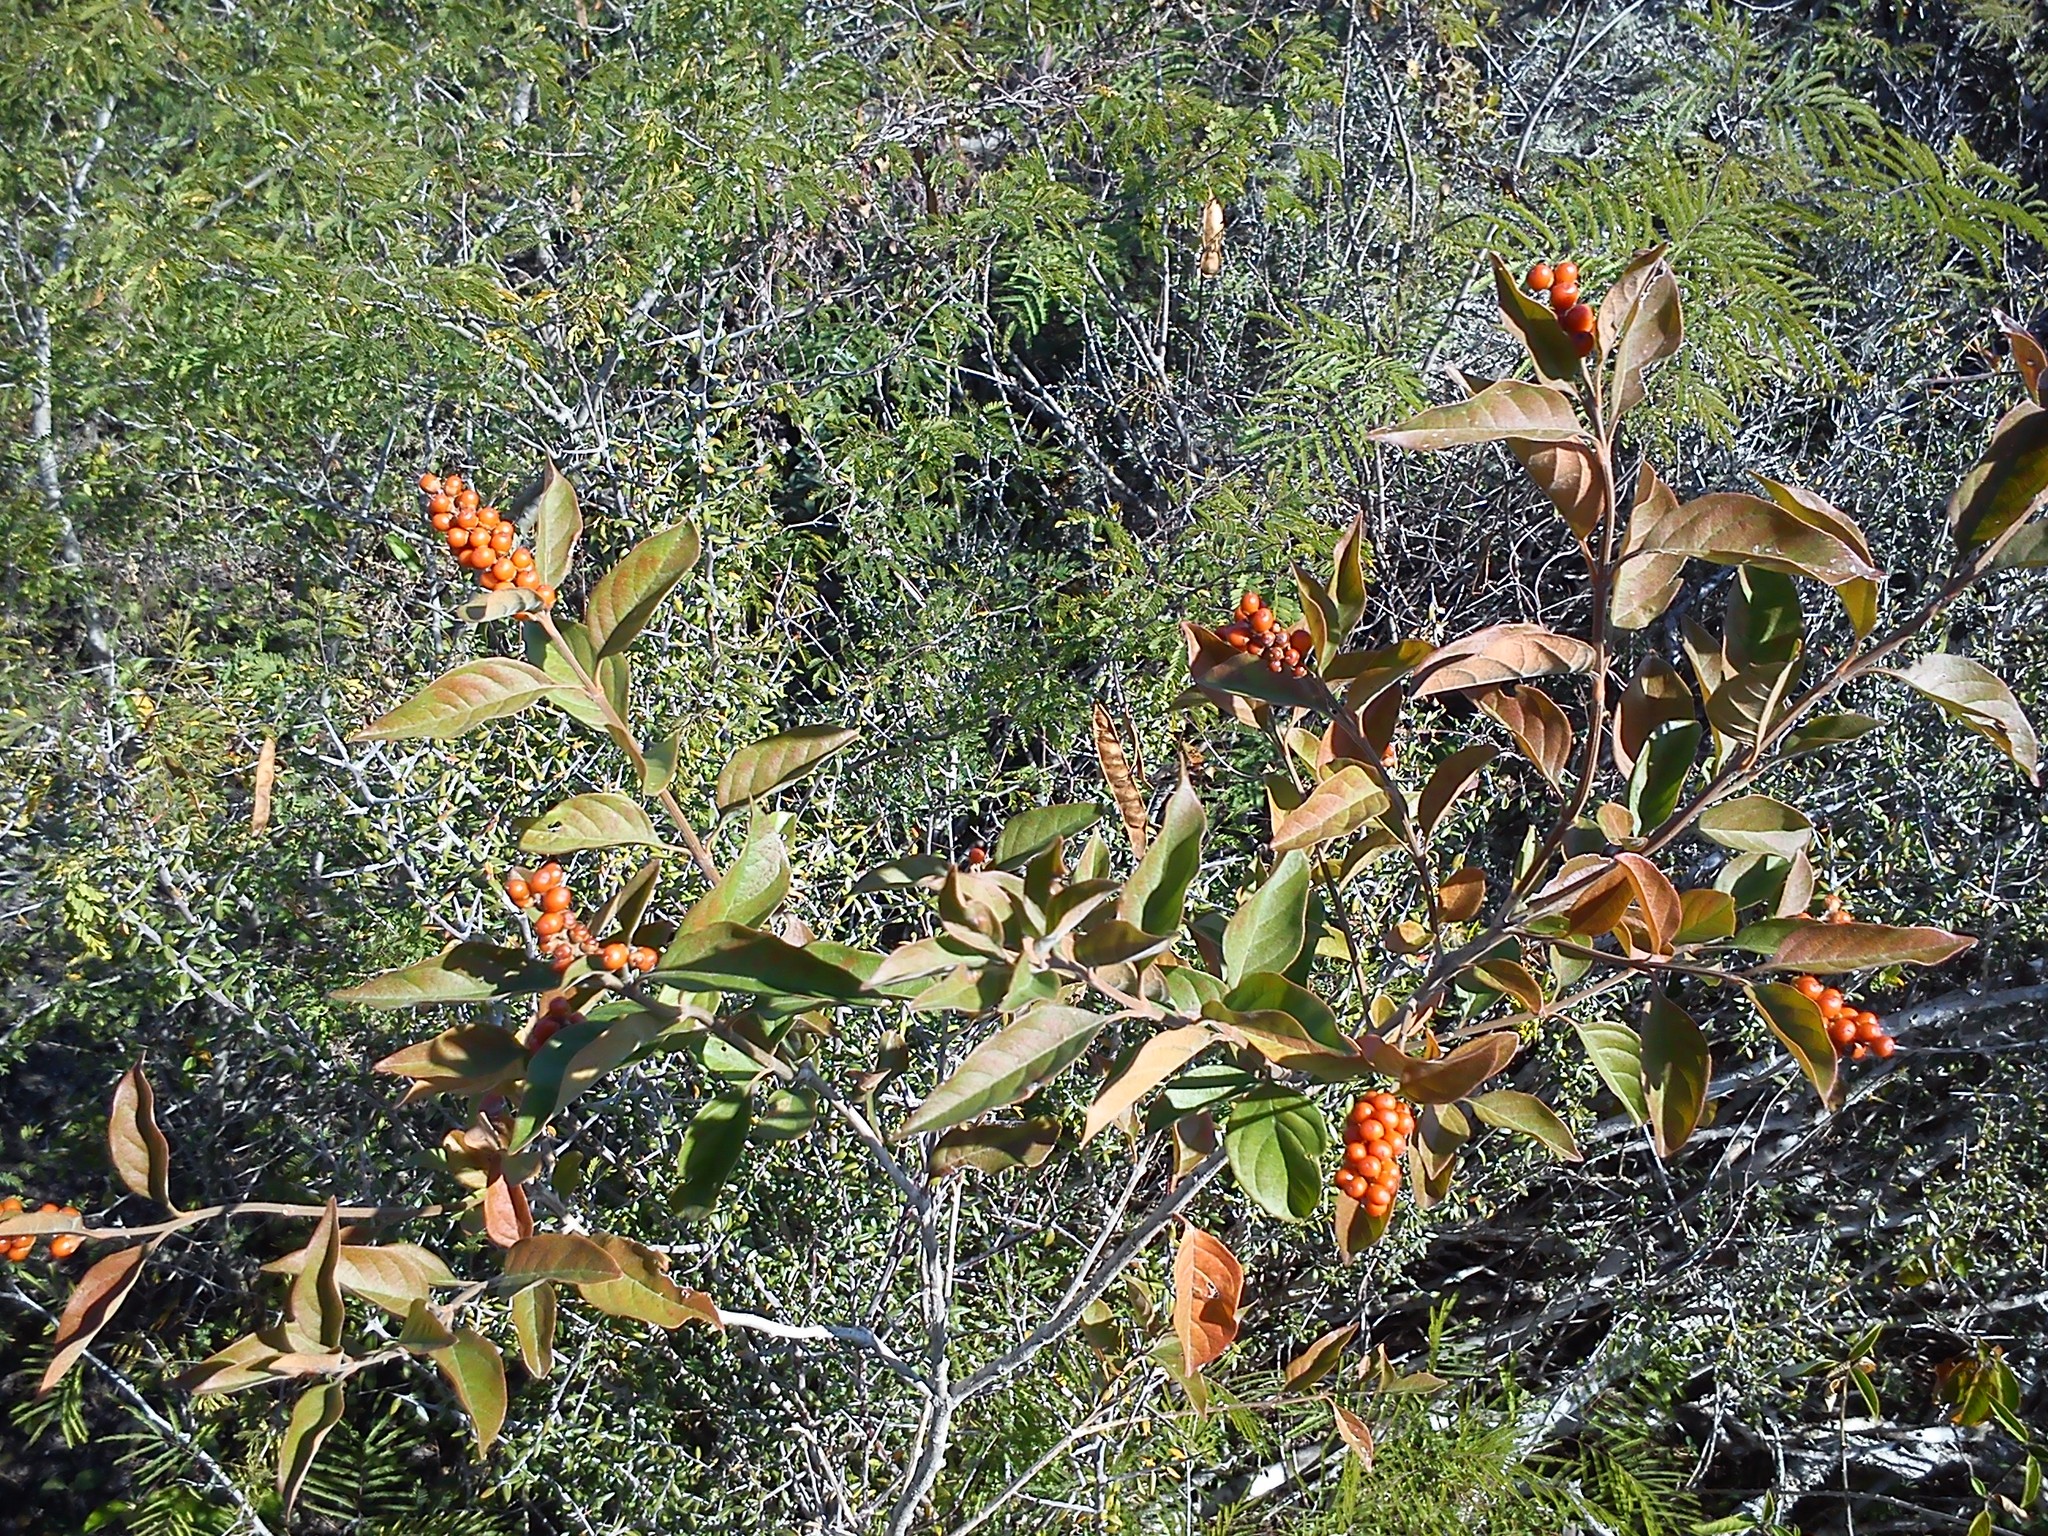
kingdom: Plantae
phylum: Tracheophyta
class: Magnoliopsida
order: Lamiales
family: Verbenaceae
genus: Citharexylum
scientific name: Citharexylum berlandieri
